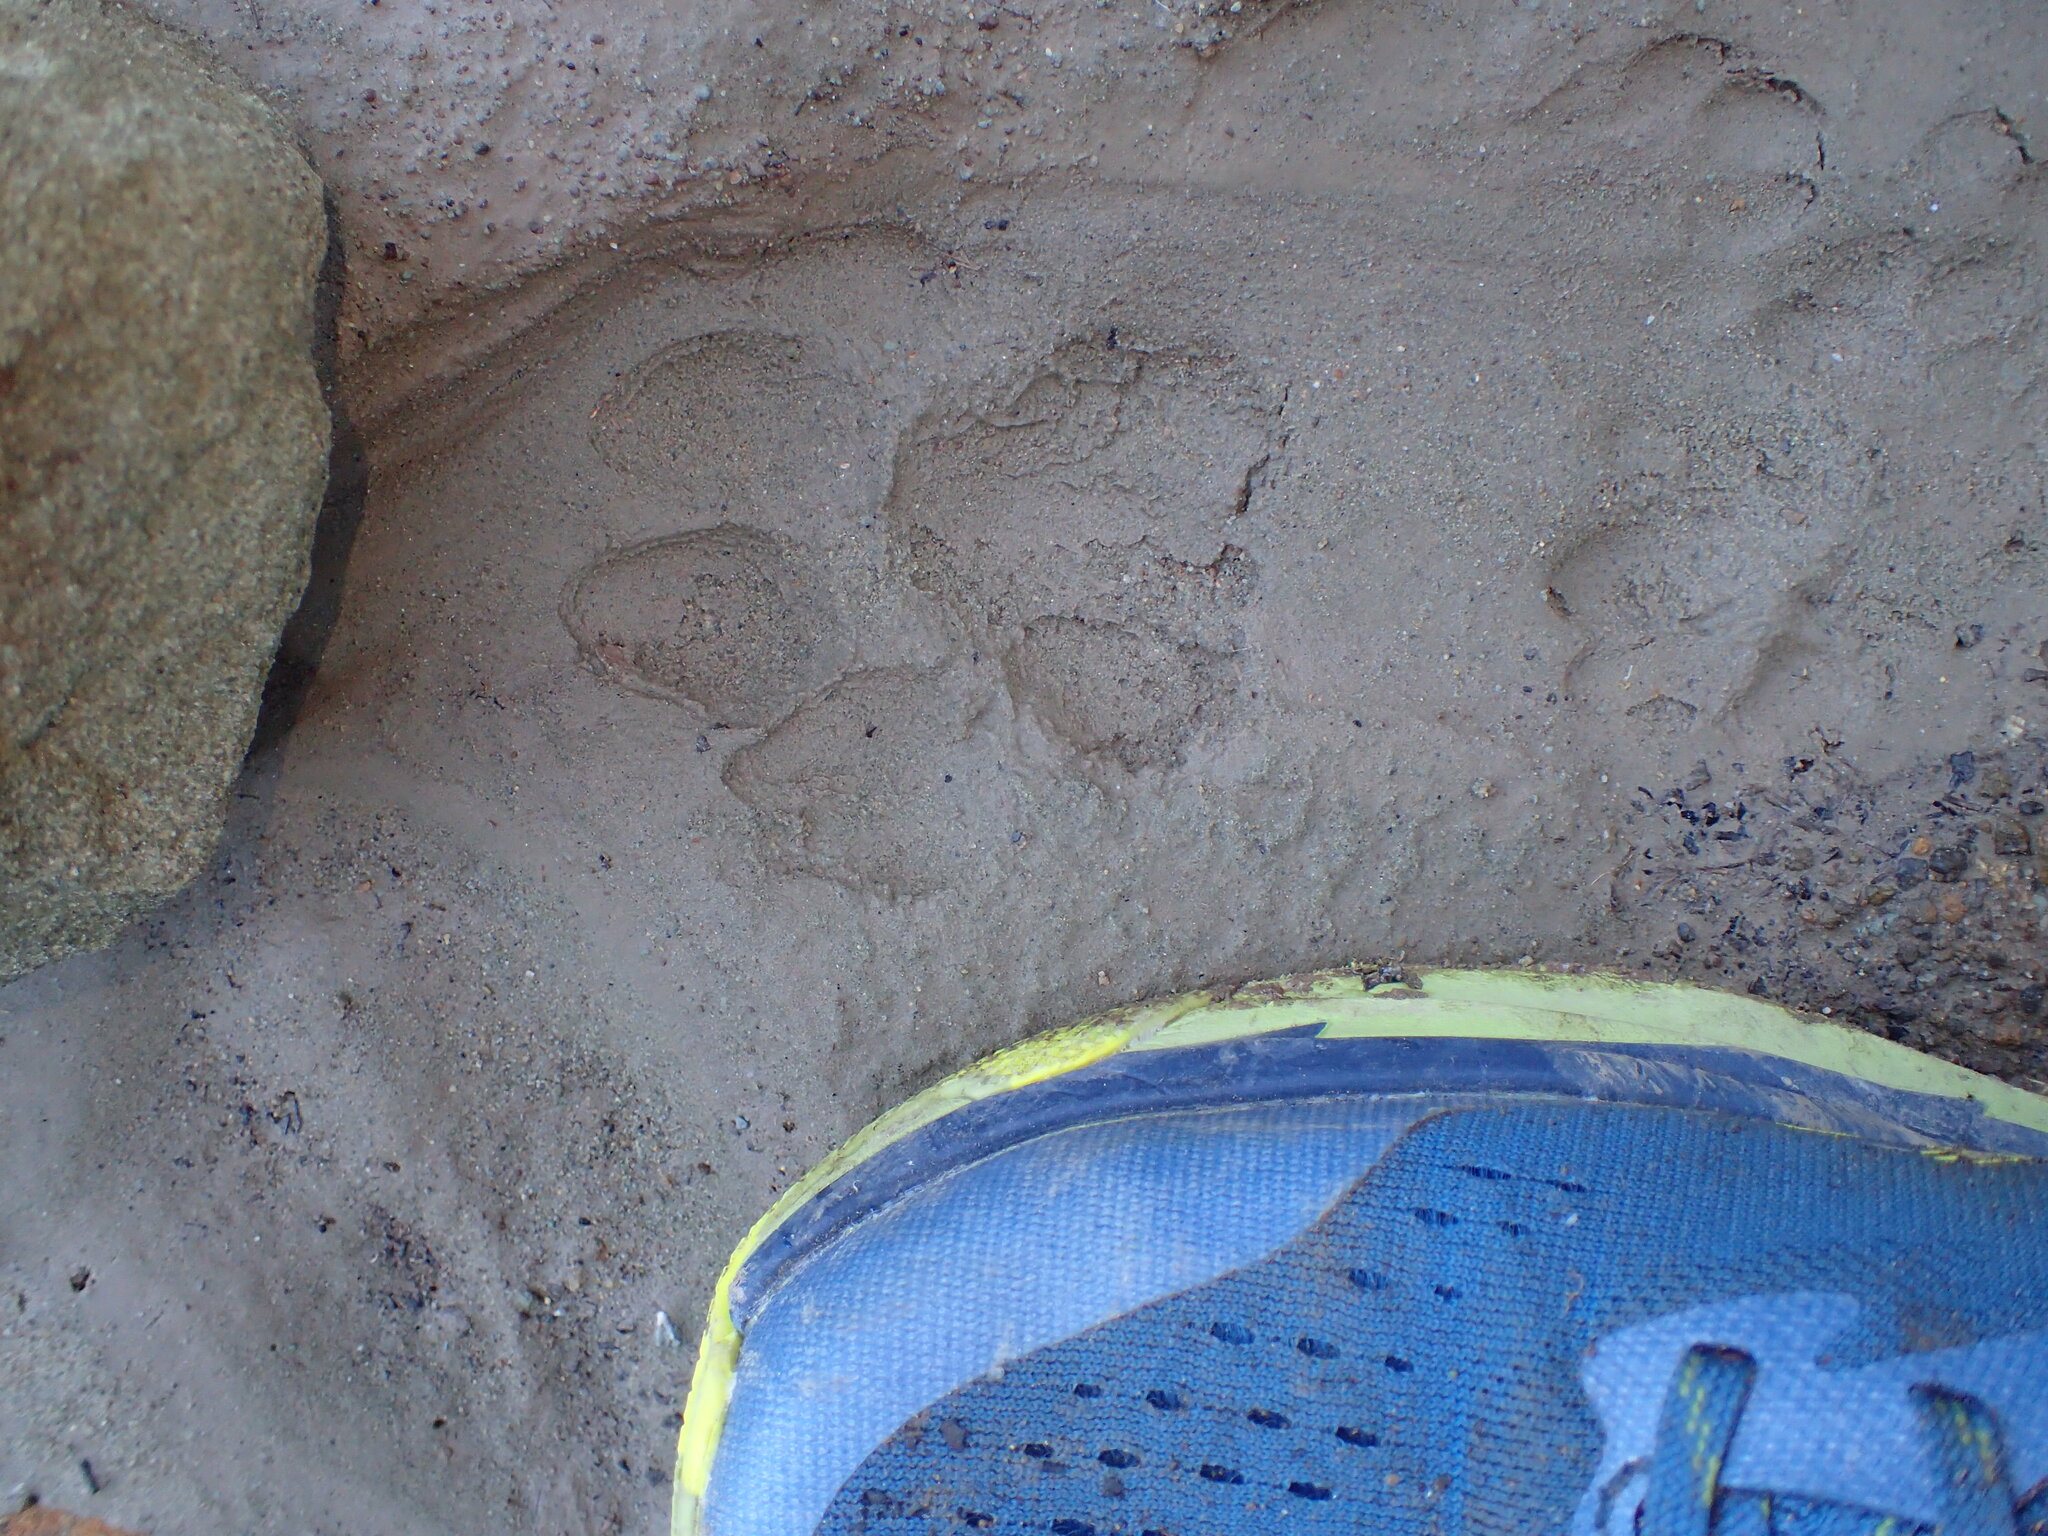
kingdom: Animalia
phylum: Chordata
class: Mammalia
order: Carnivora
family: Felidae
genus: Puma
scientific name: Puma concolor
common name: Puma
